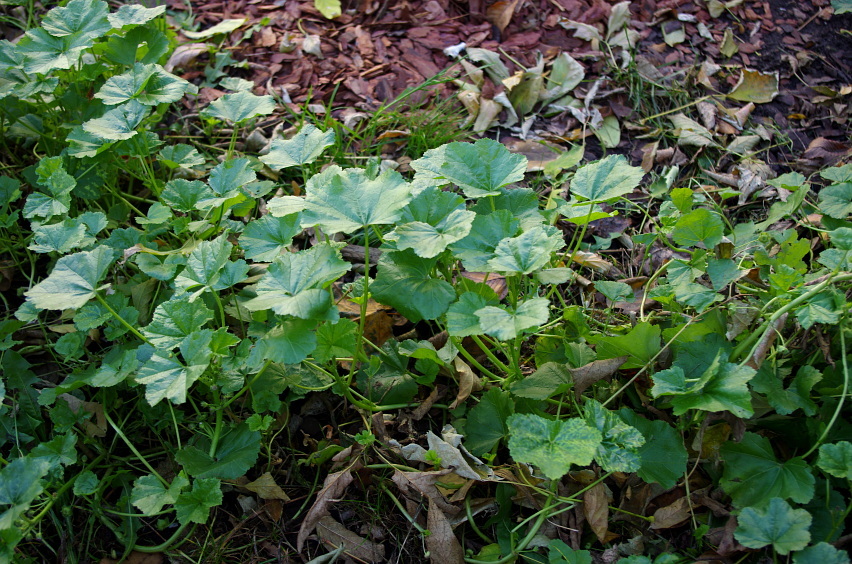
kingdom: Plantae
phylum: Tracheophyta
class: Magnoliopsida
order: Malvales
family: Malvaceae
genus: Malva
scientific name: Malva pusilla
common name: Small mallow
